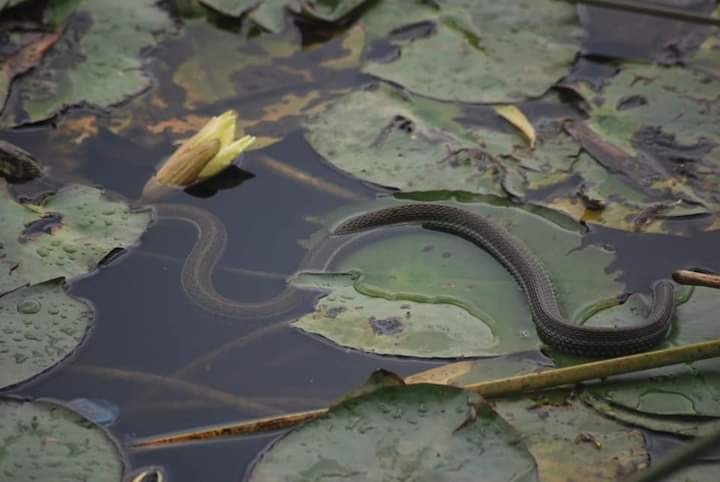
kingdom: Animalia
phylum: Chordata
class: Squamata
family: Colubridae
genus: Thamnophis
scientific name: Thamnophis eques
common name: Mexican garter snake
